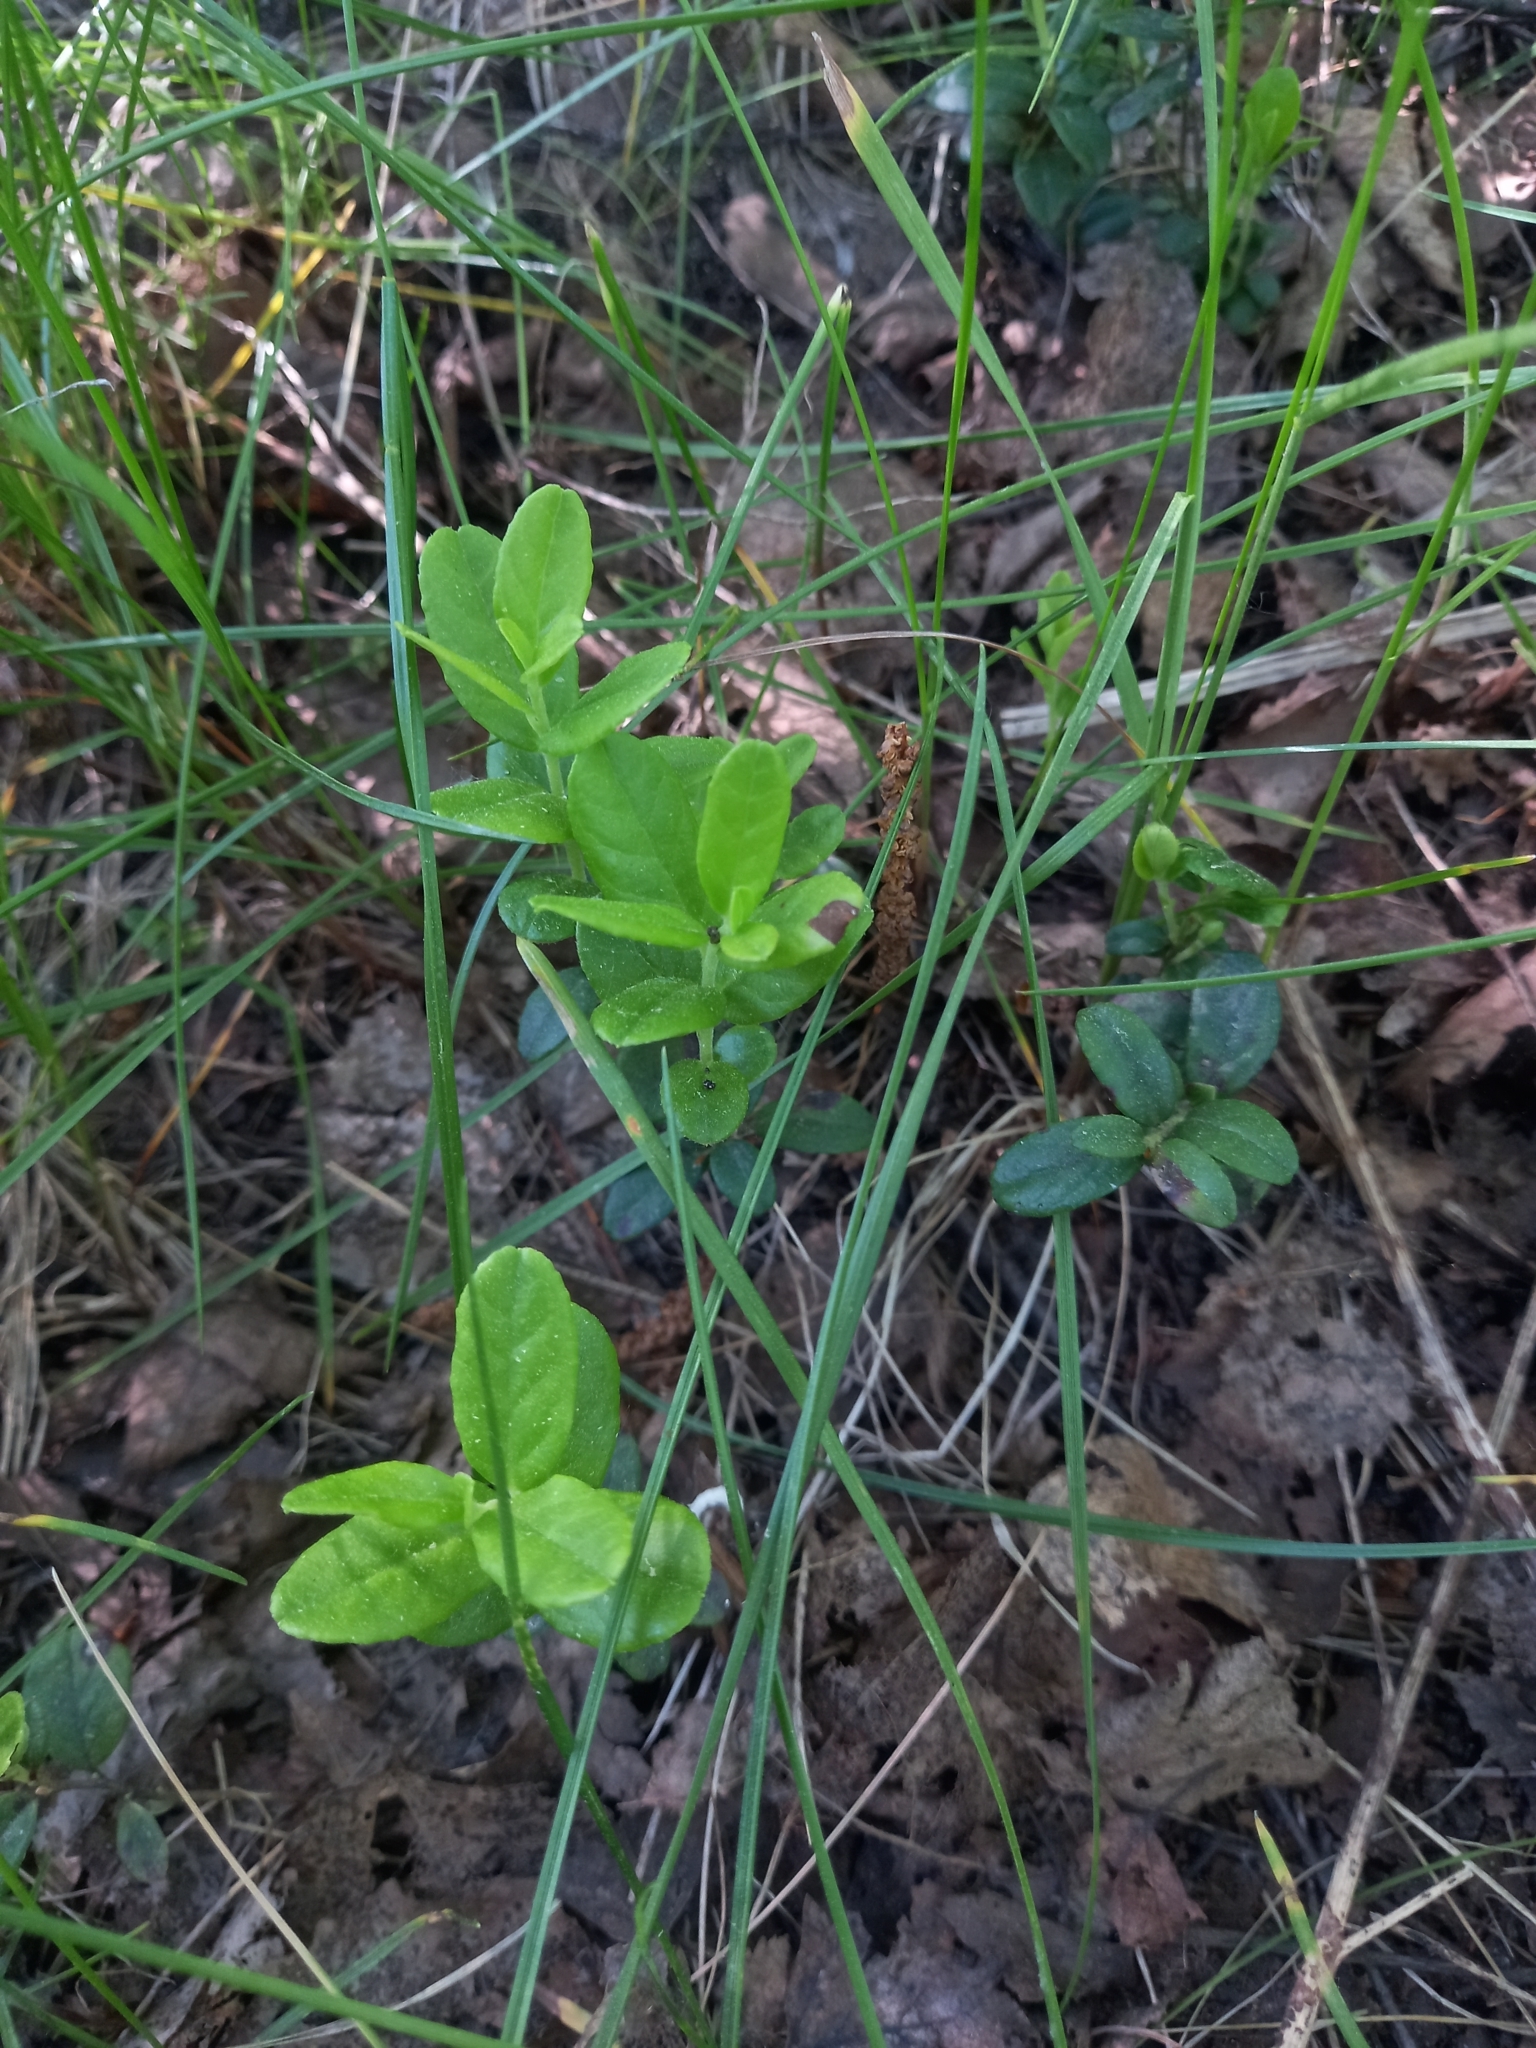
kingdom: Plantae
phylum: Tracheophyta
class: Magnoliopsida
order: Ericales
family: Ericaceae
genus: Vaccinium
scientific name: Vaccinium vitis-idaea
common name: Cowberry
